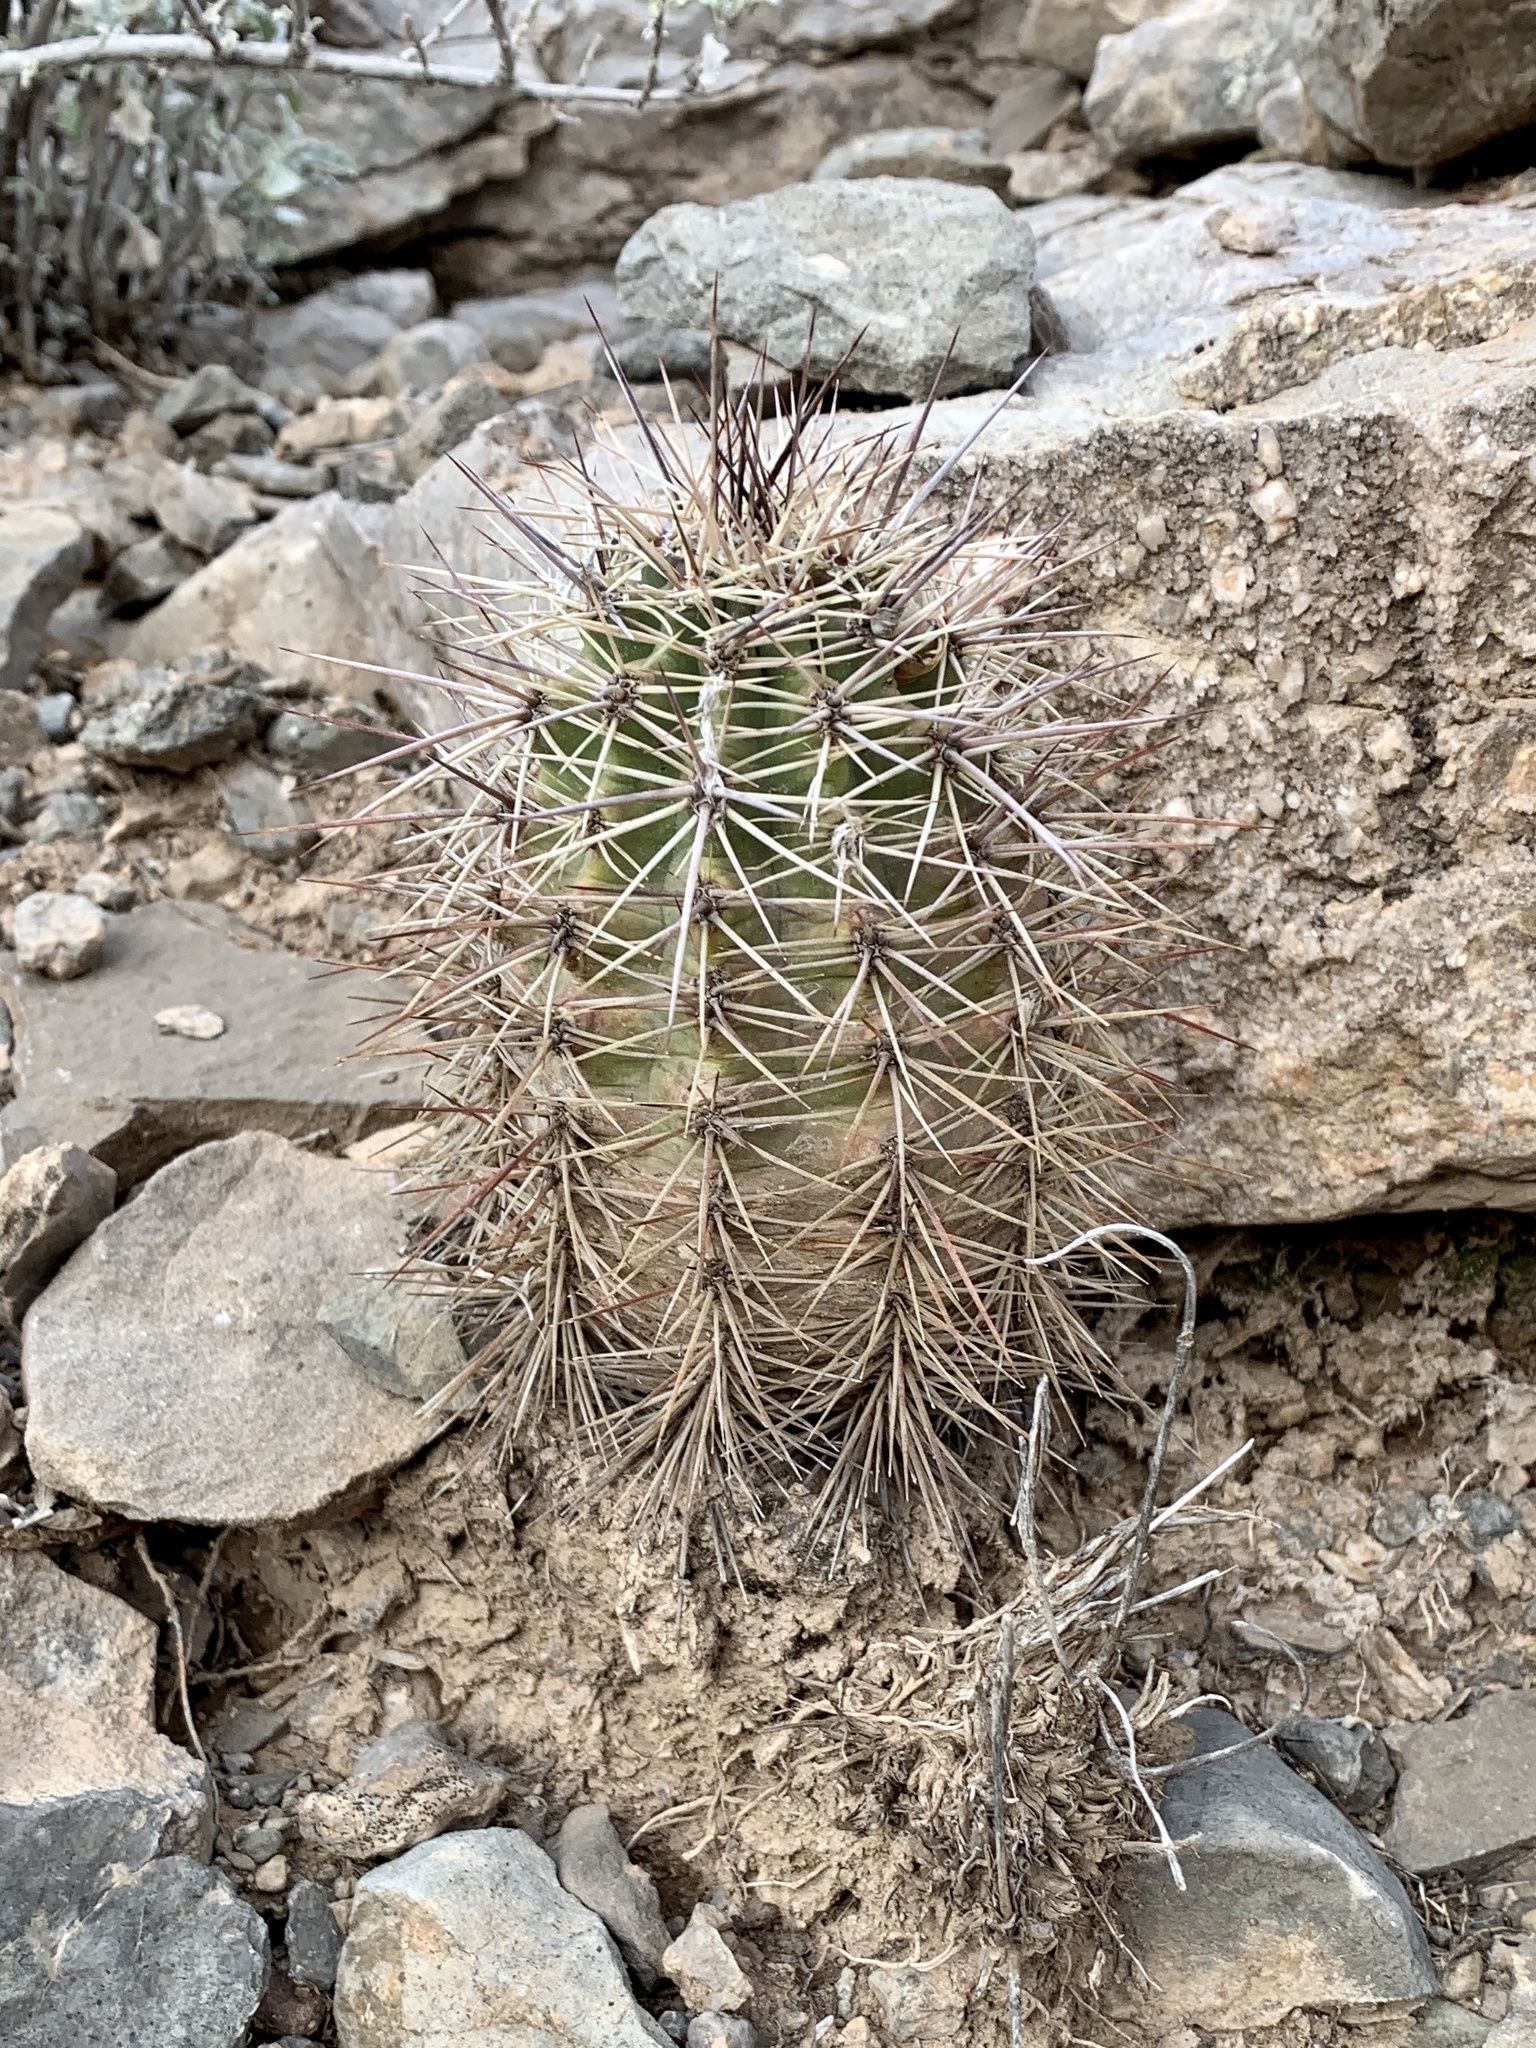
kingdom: Plantae
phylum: Tracheophyta
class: Magnoliopsida
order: Caryophyllales
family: Cactaceae
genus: Echinocereus
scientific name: Echinocereus coccineus
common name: Scarlet hedgehog cactus
